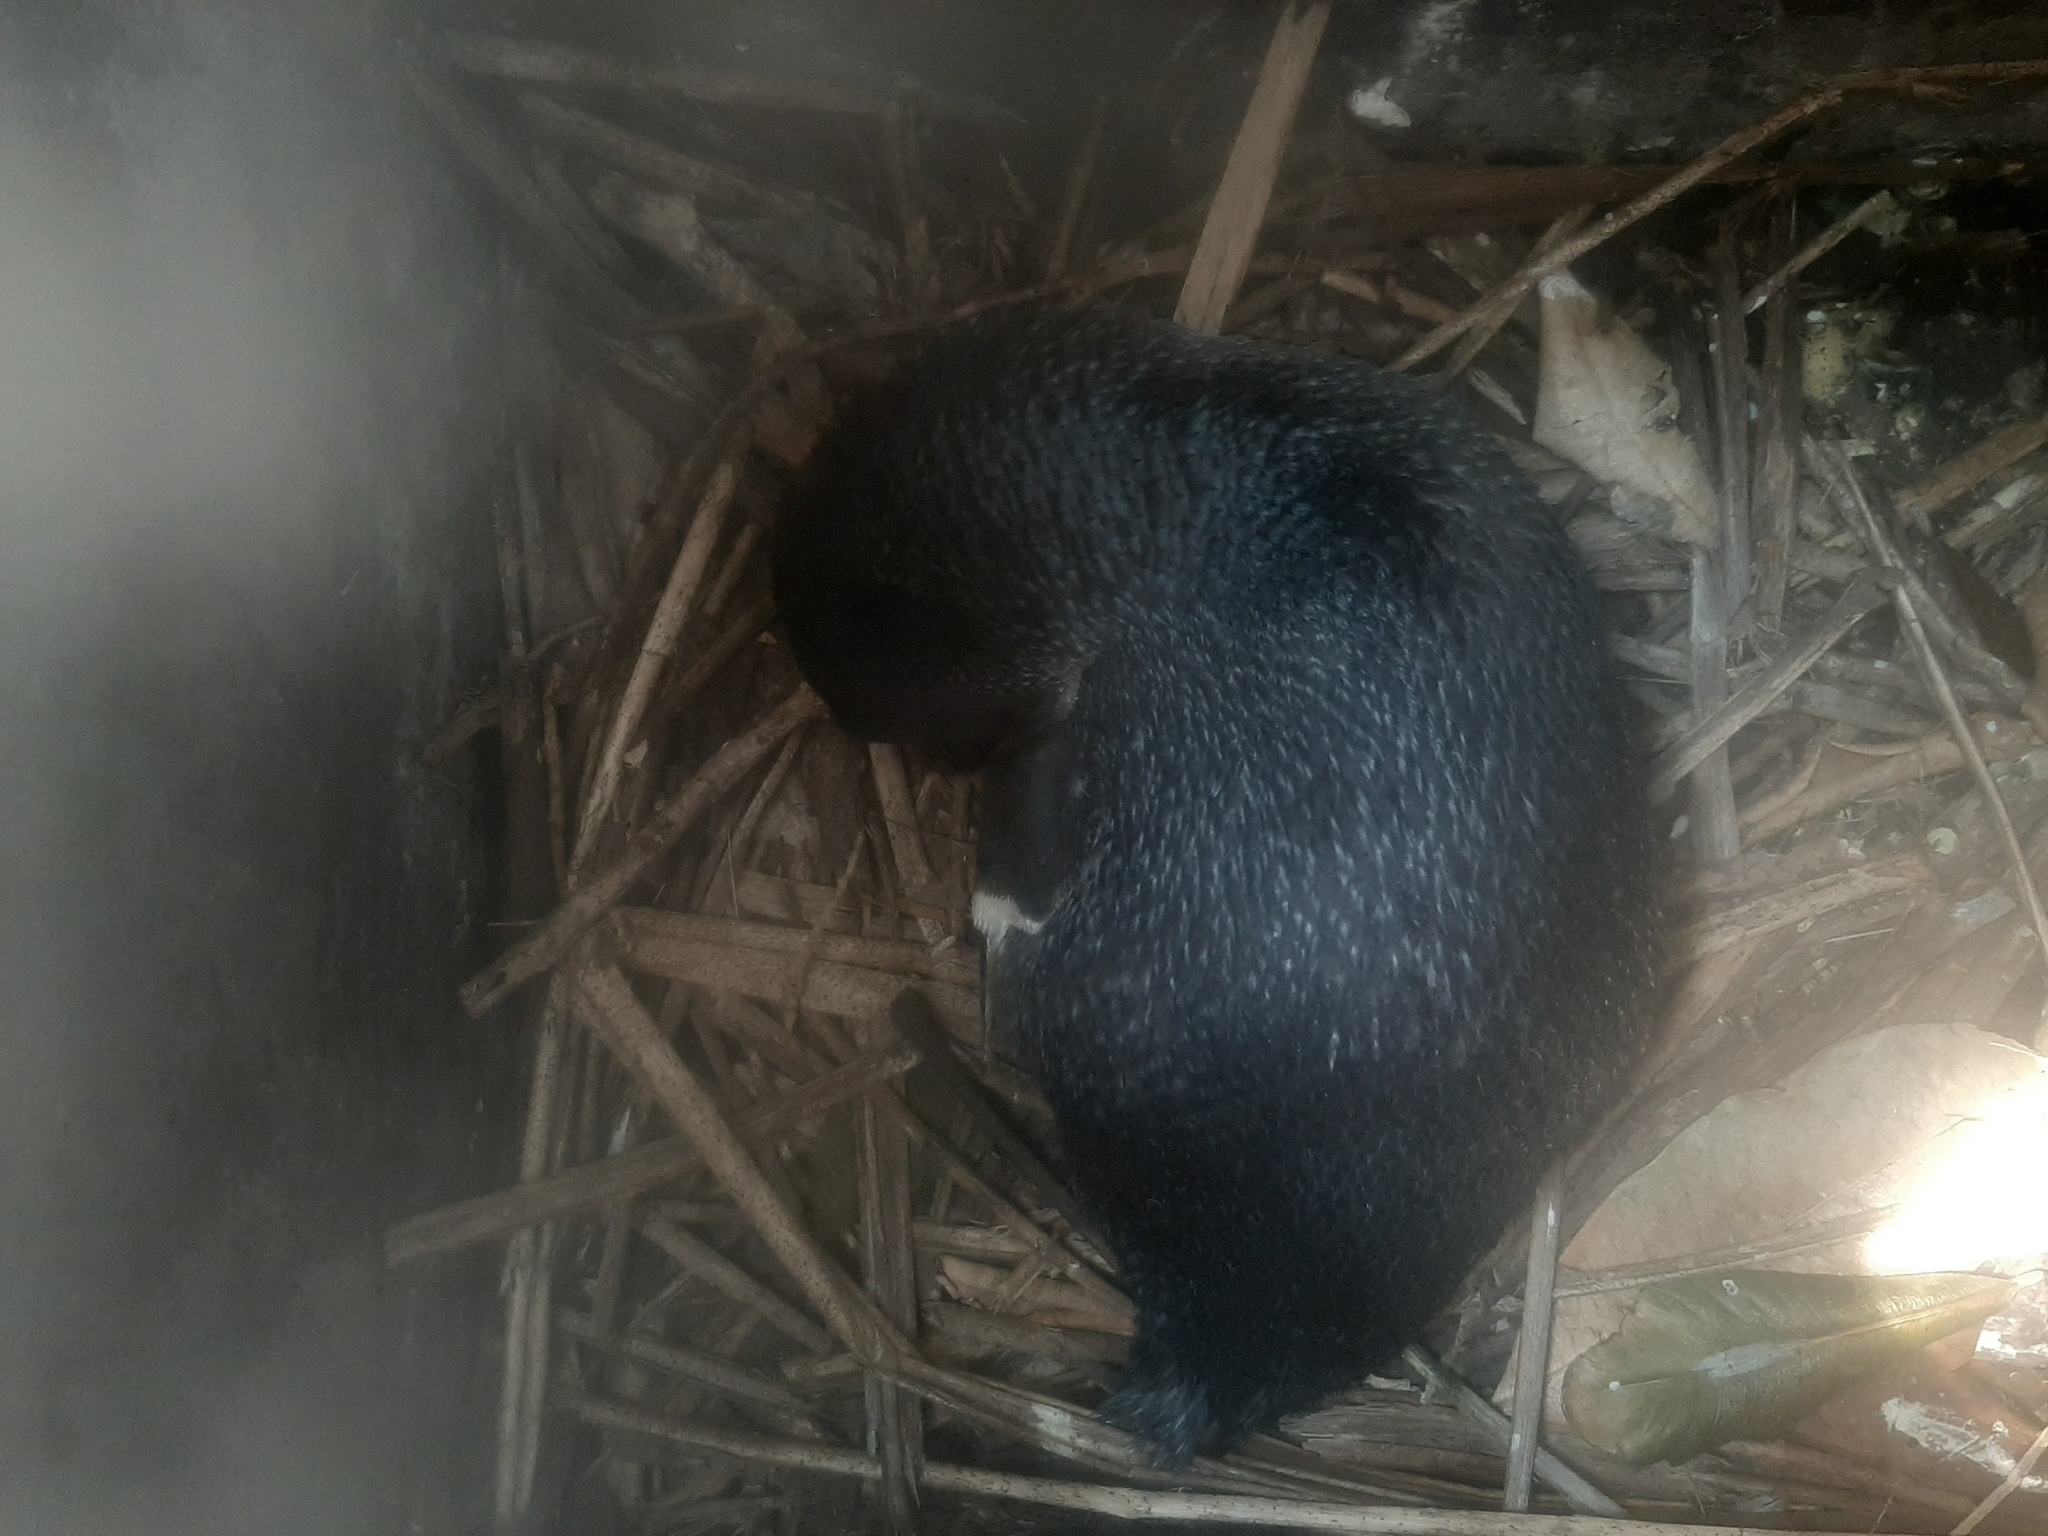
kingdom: Animalia
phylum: Chordata
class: Aves
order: Sphenisciformes
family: Spheniscidae
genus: Eudyptula
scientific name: Eudyptula minor
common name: Little penguin
